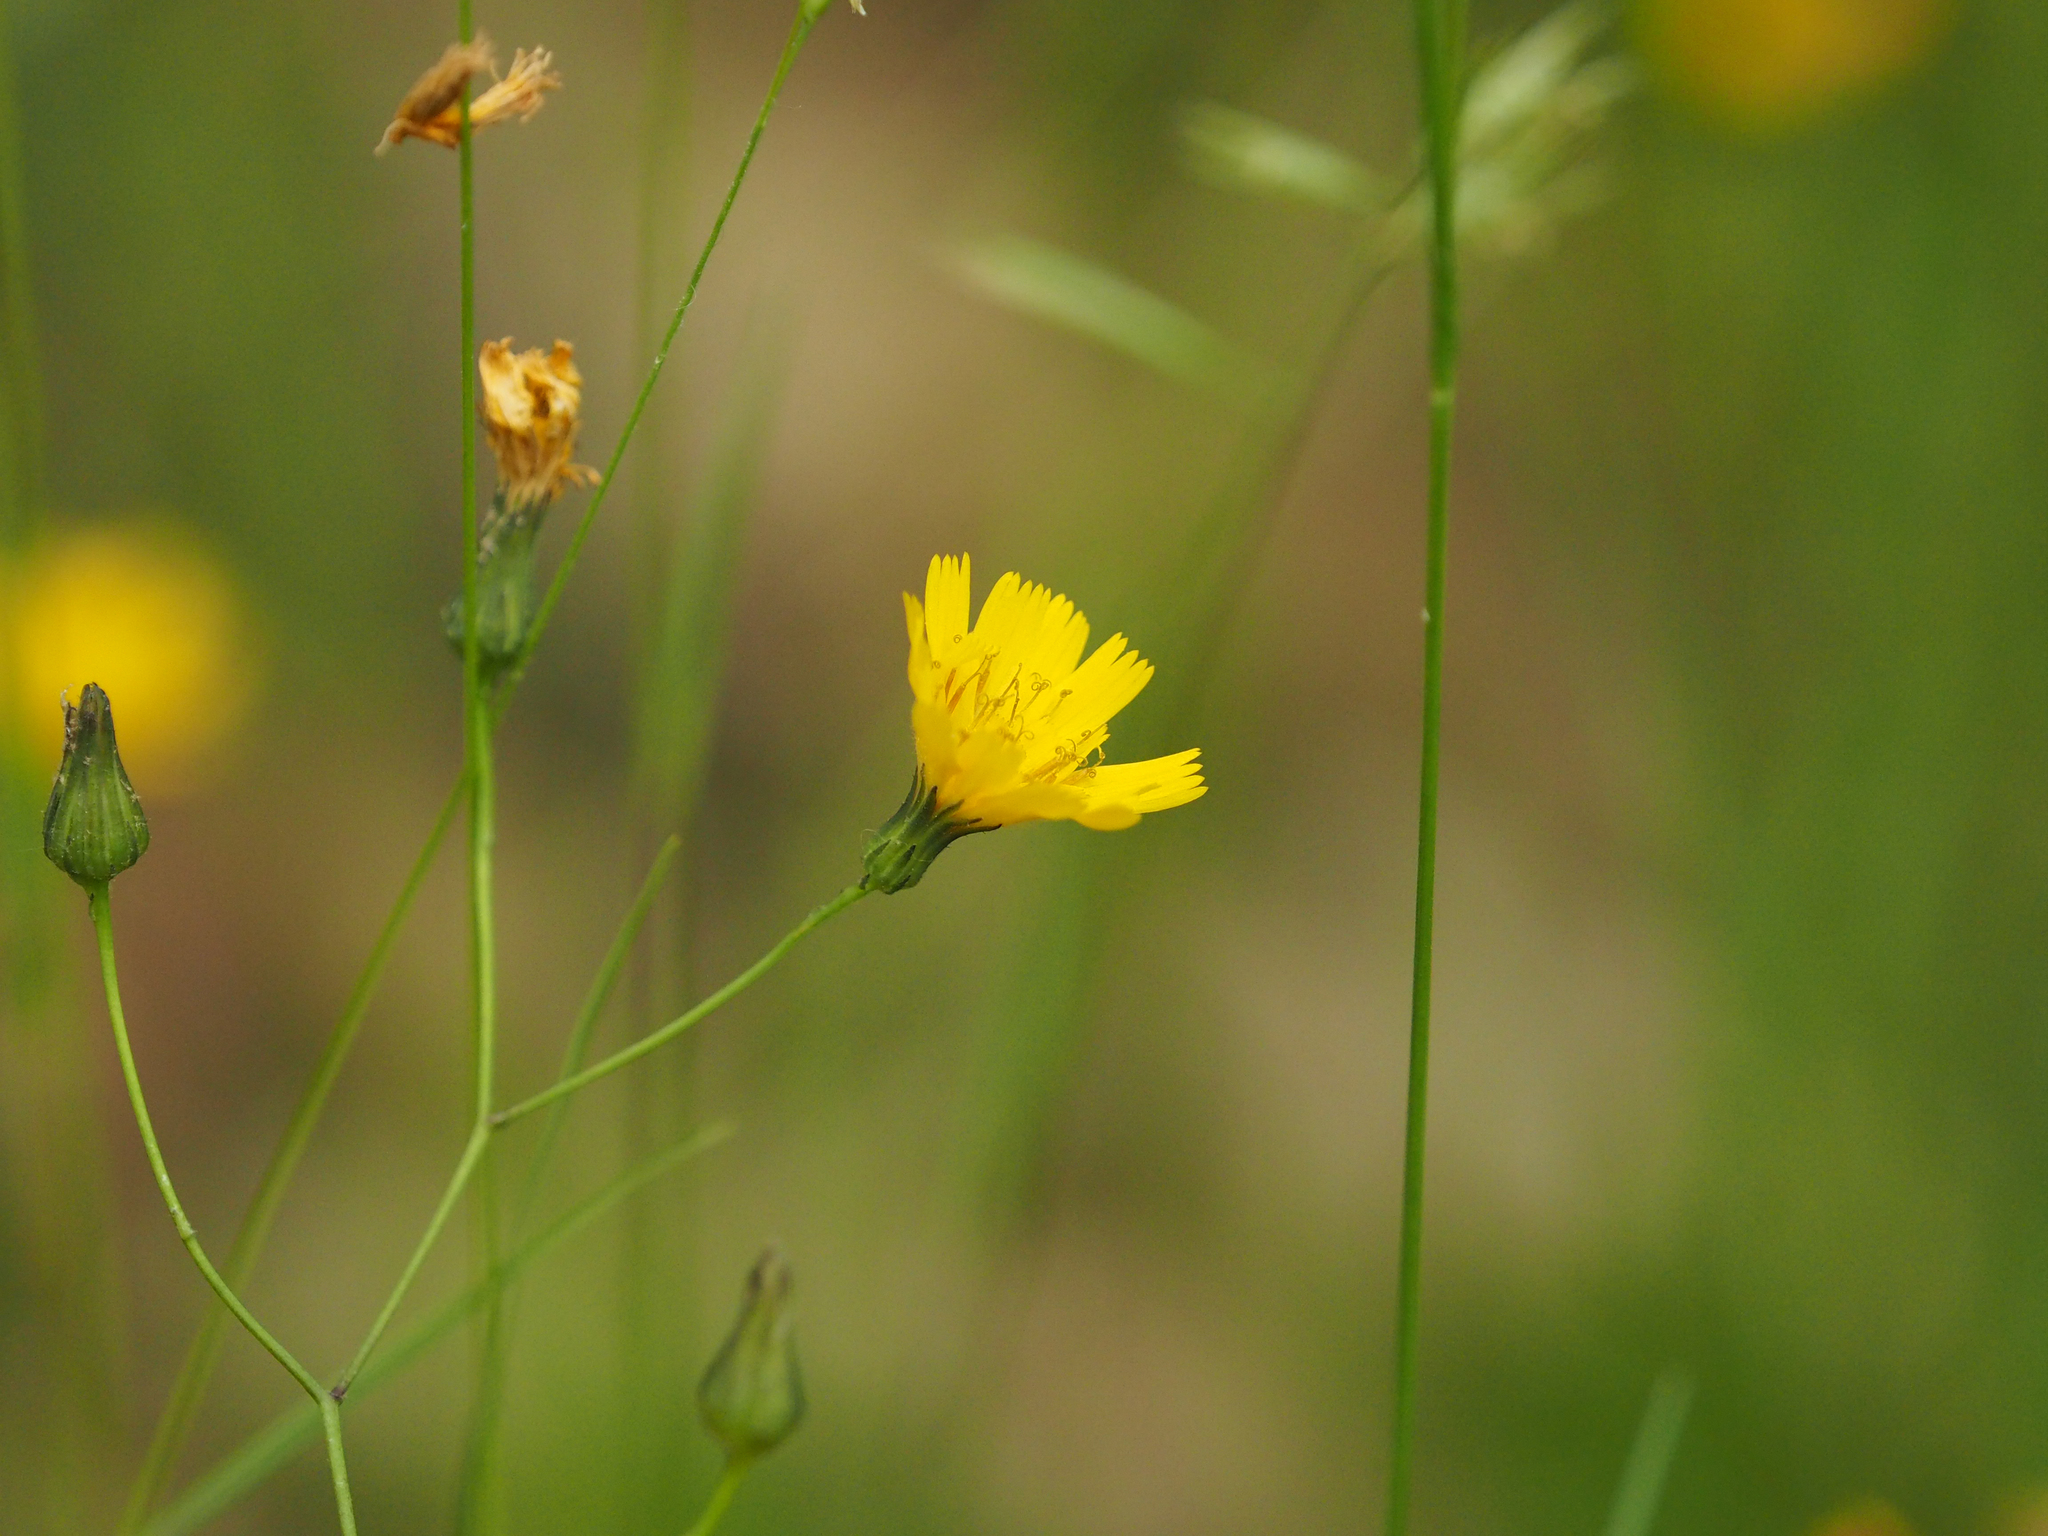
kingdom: Plantae
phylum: Tracheophyta
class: Magnoliopsida
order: Asterales
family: Asteraceae
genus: Hieracium
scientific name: Hieracium venosum
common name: Rattlesnake hawkweed
